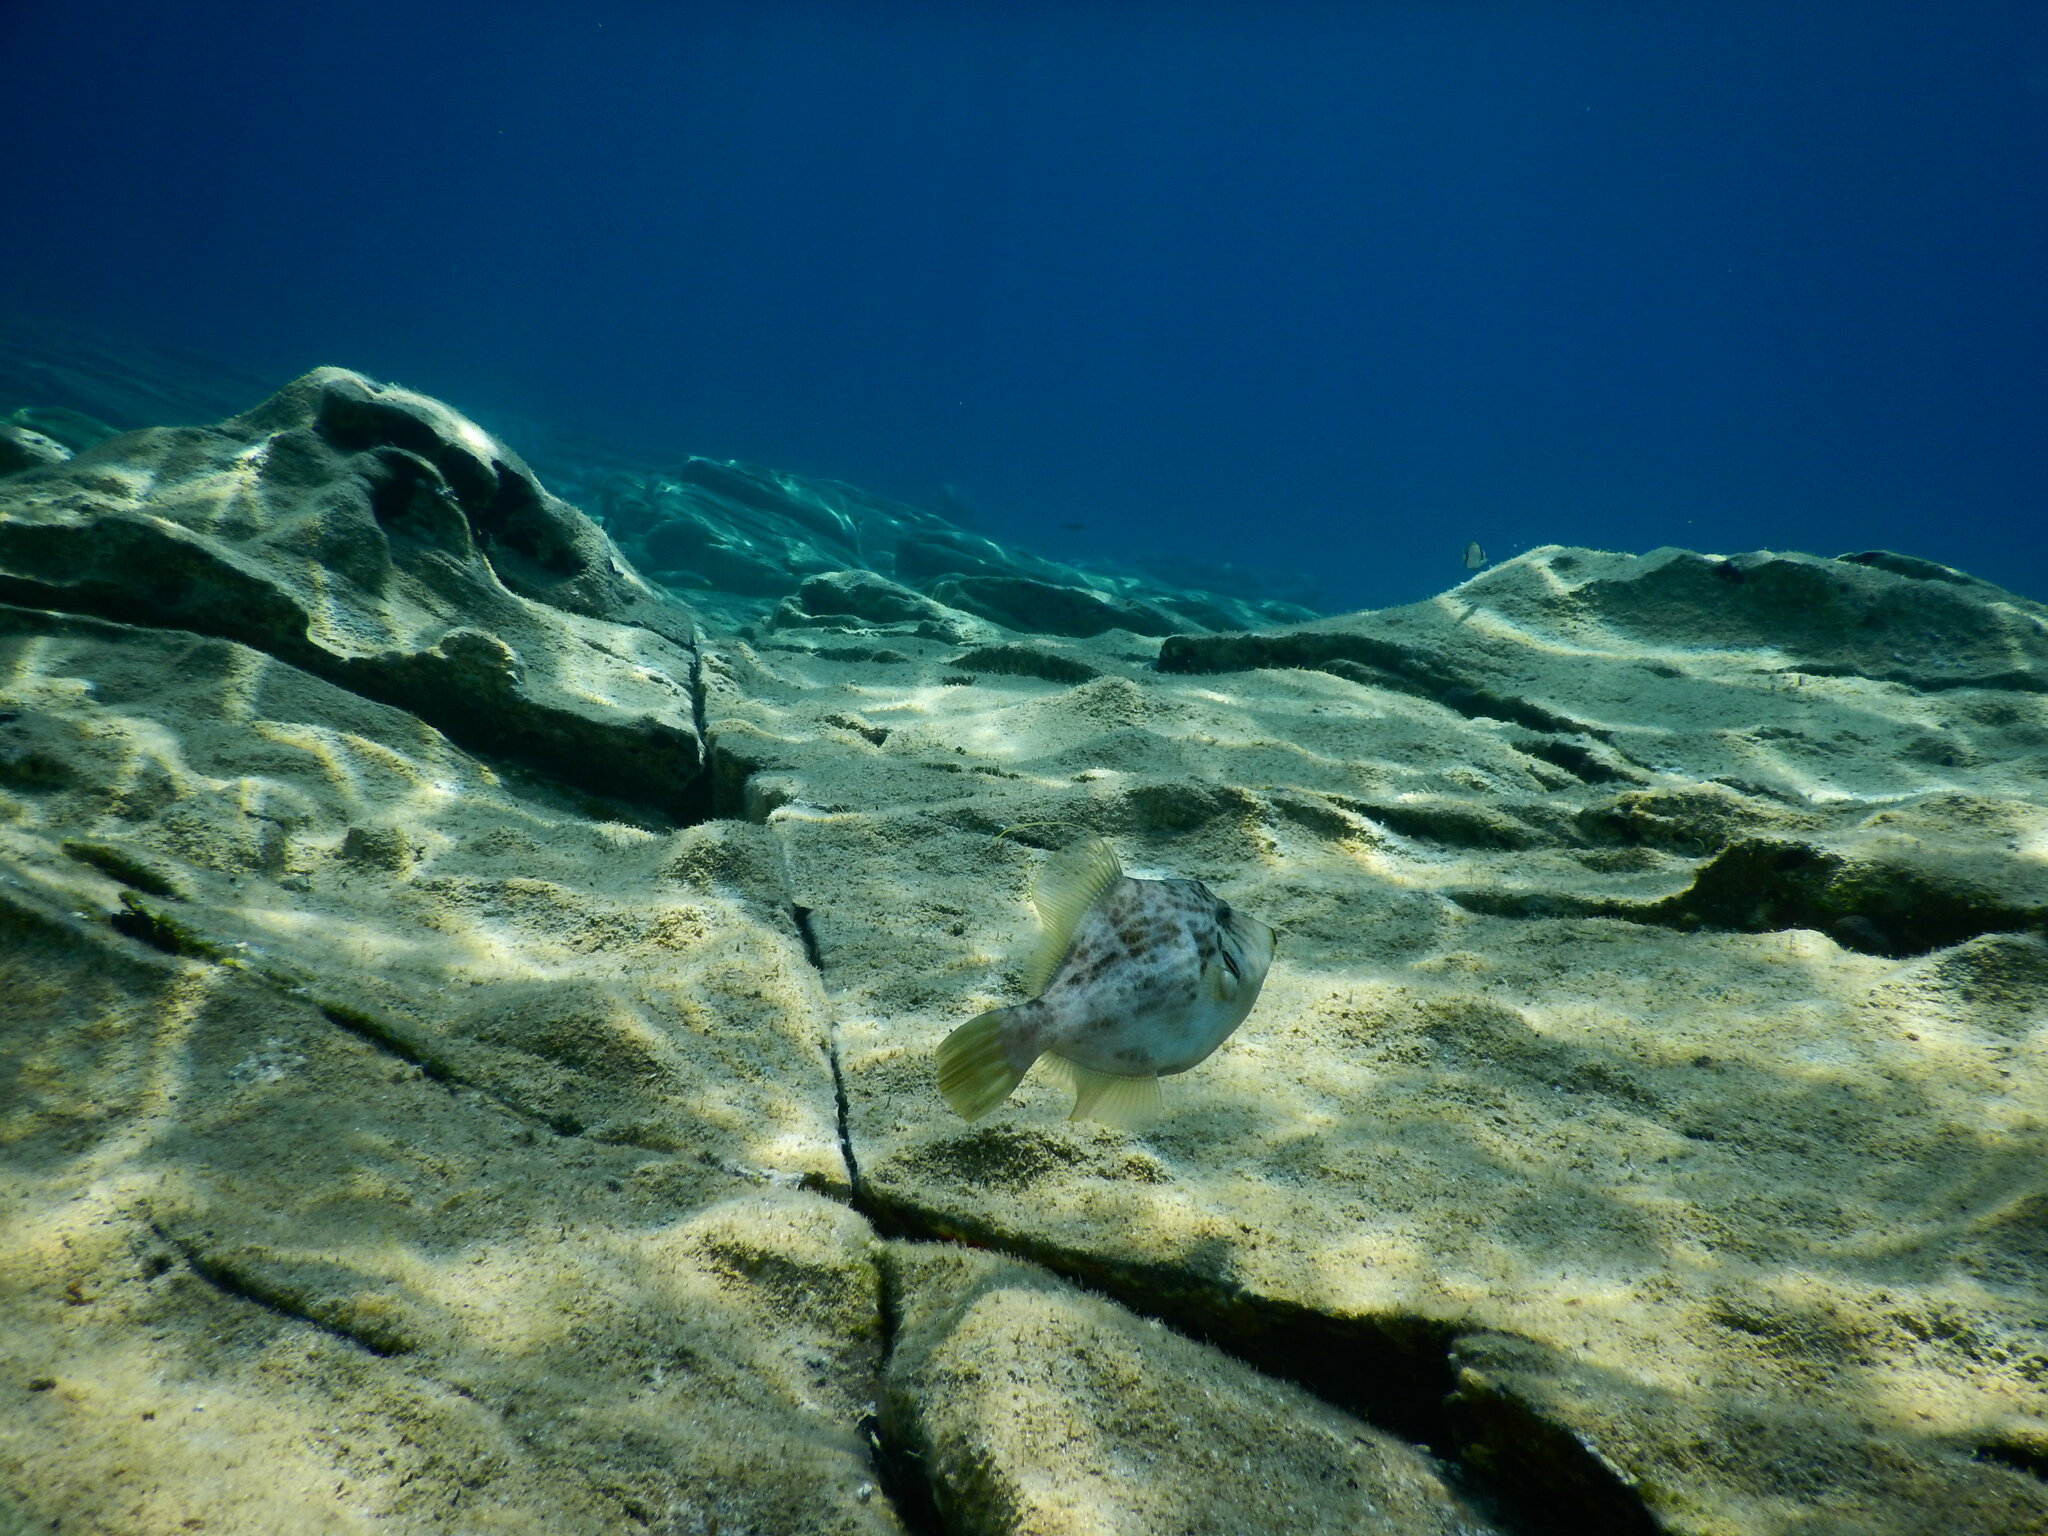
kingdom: Animalia
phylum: Chordata
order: Tetraodontiformes
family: Monacanthidae
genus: Stephanolepis
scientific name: Stephanolepis diaspros
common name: Reticulated leatherjacket
